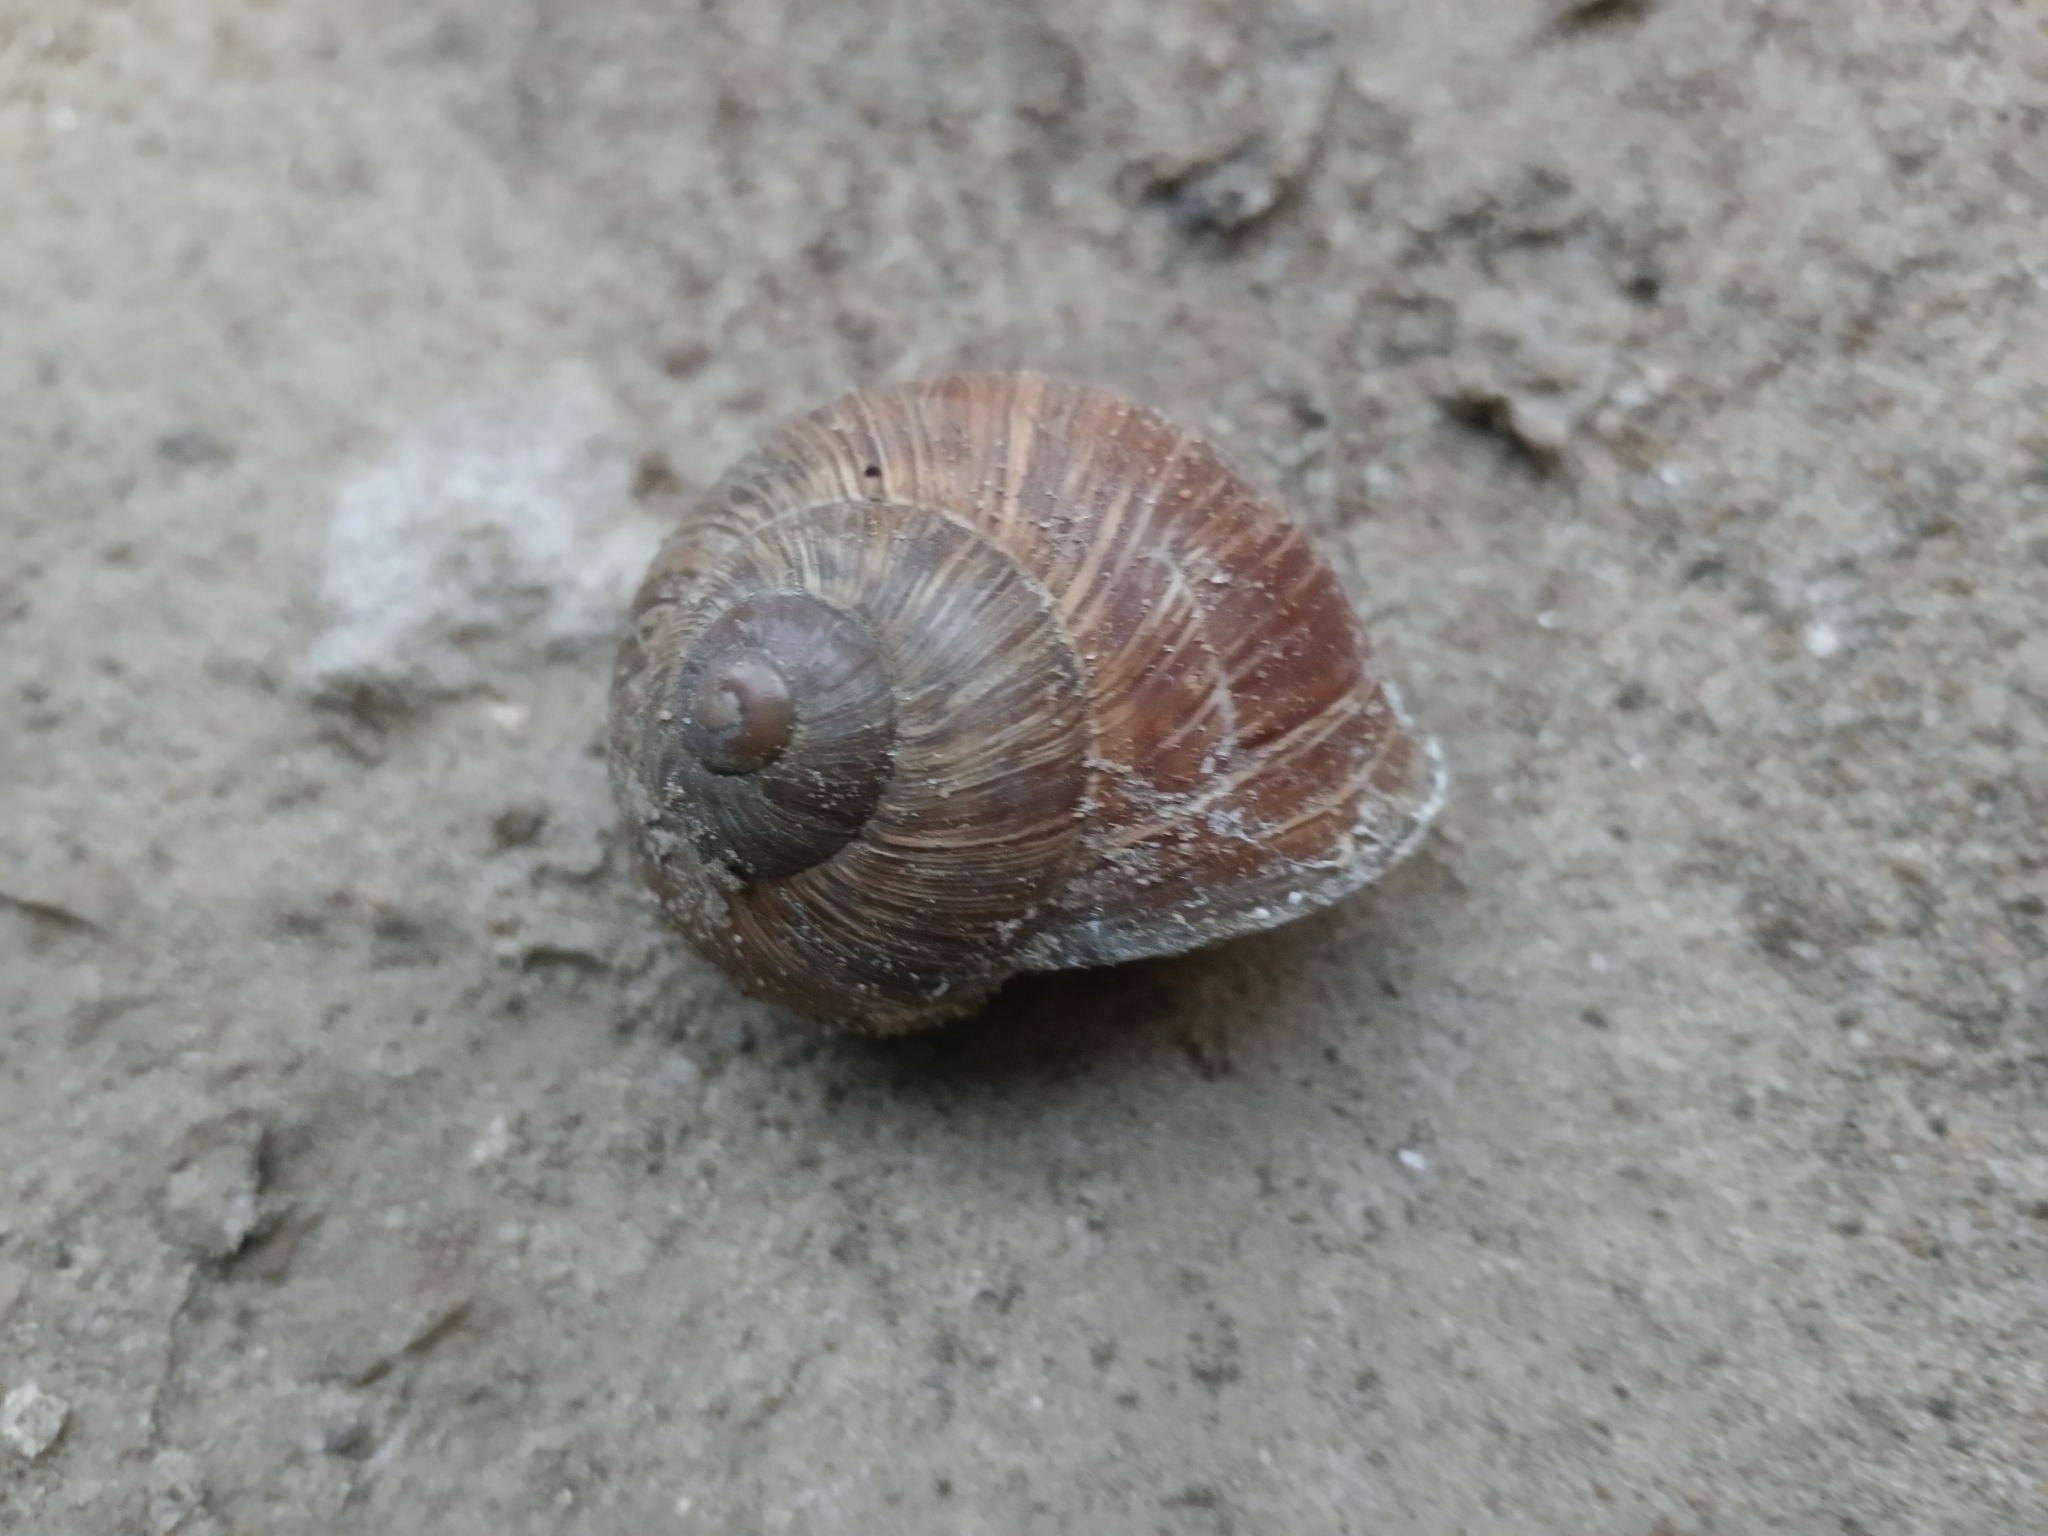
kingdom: Animalia
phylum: Mollusca
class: Gastropoda
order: Stylommatophora
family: Helicidae
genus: Helix
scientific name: Helix pomatia
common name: Roman snail
